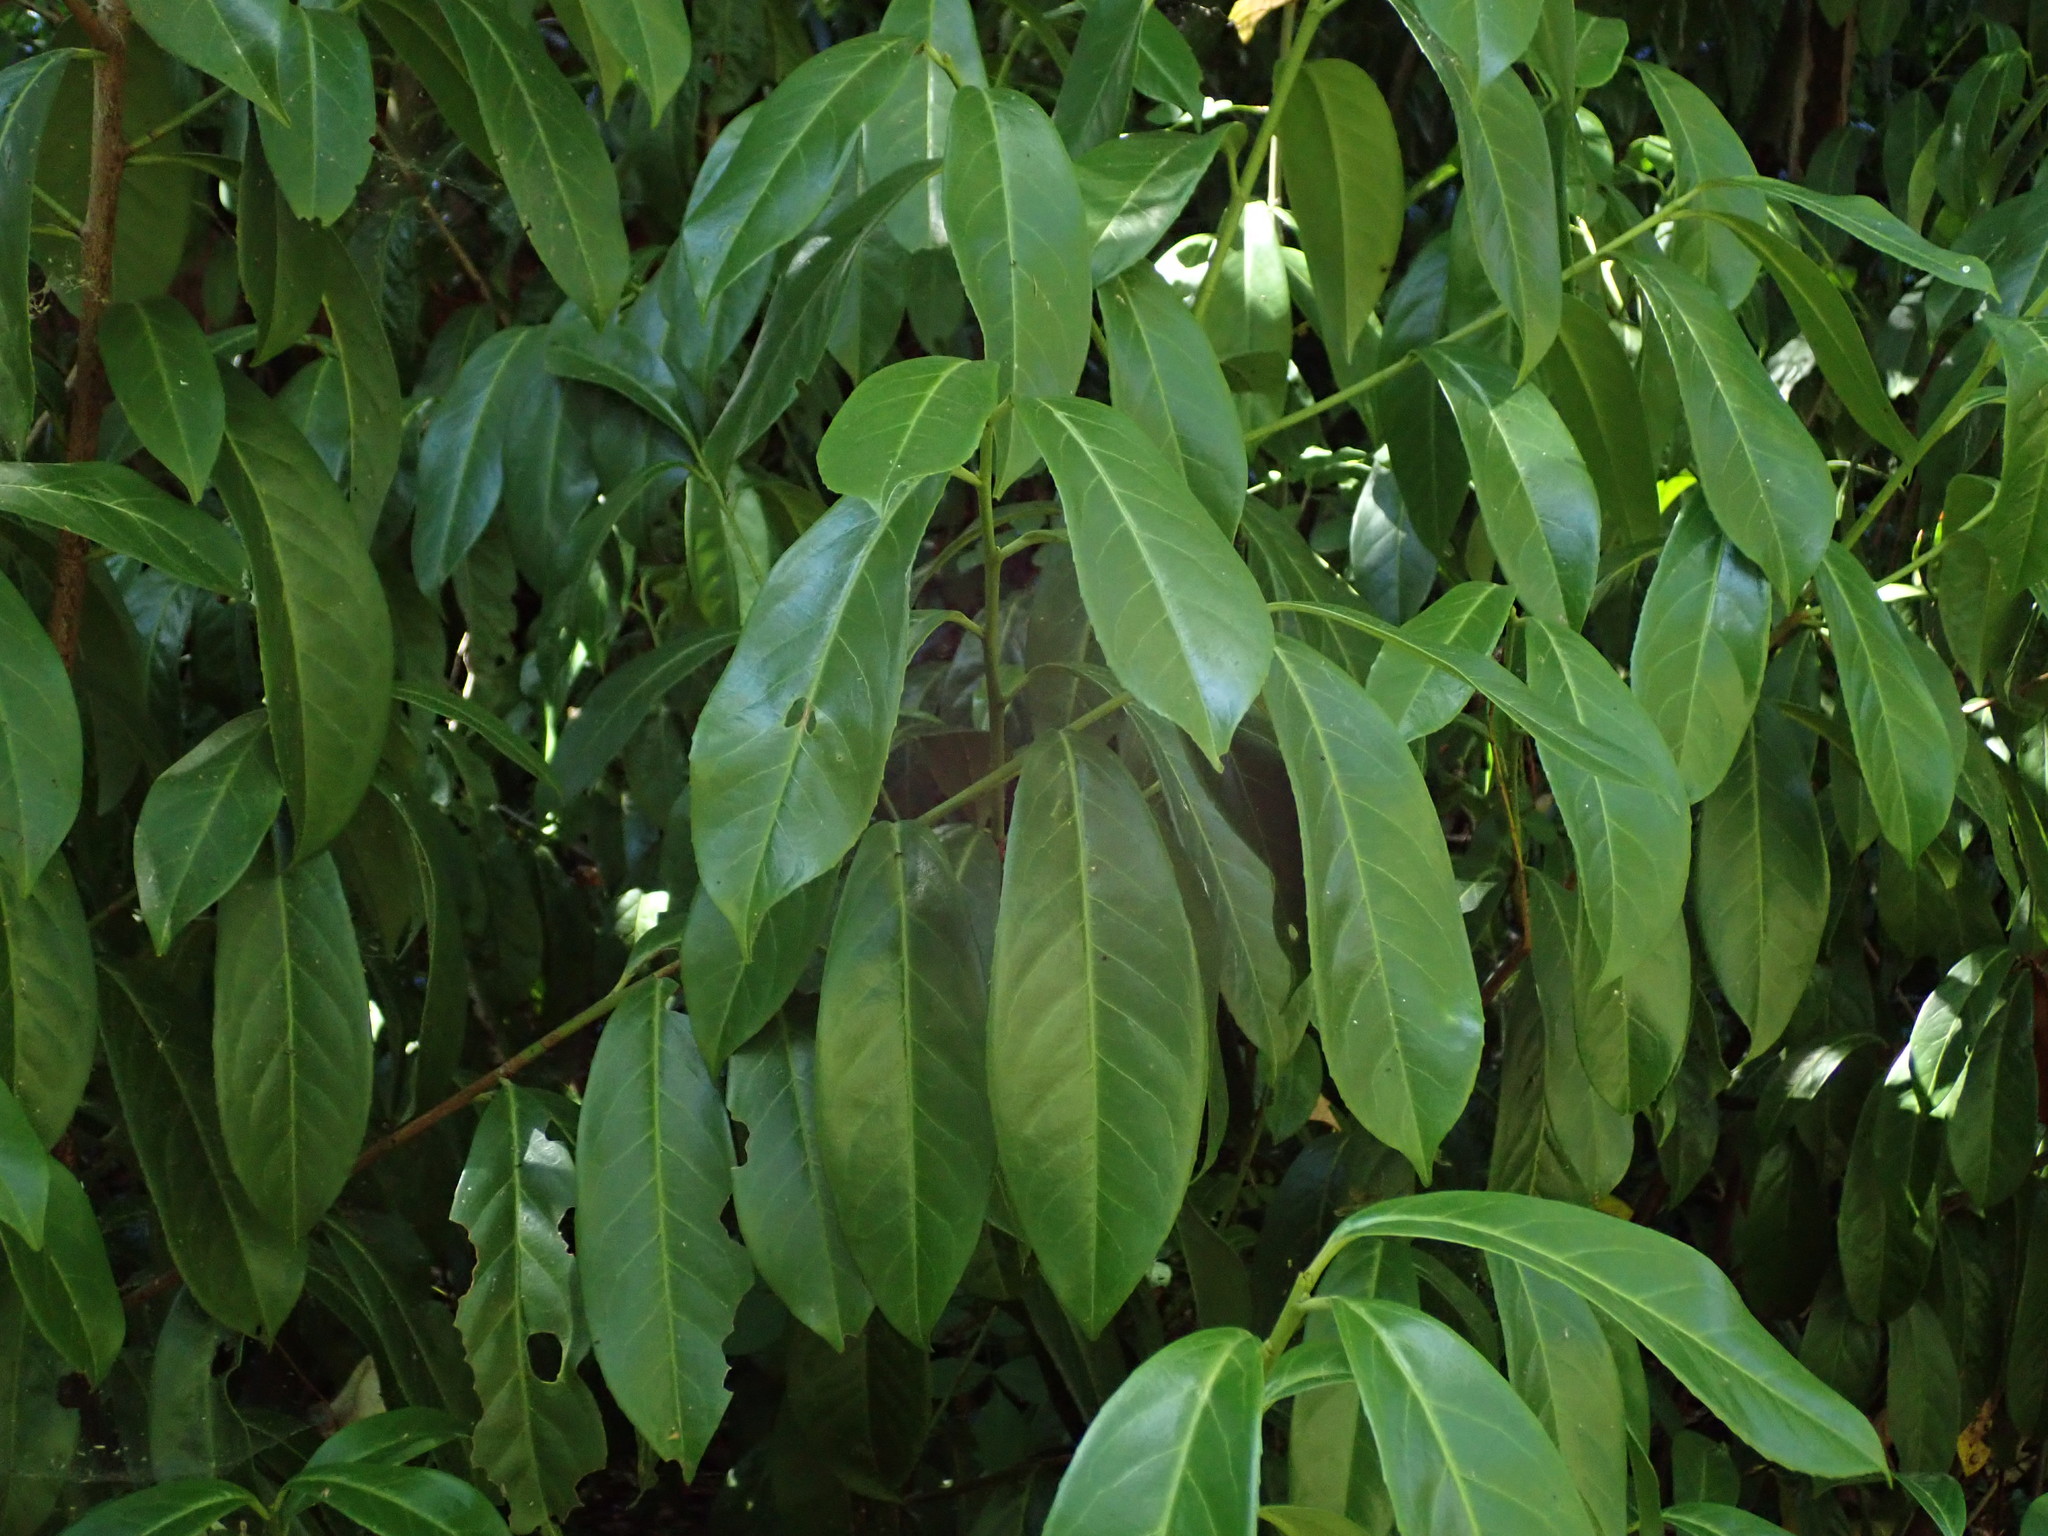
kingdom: Plantae
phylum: Tracheophyta
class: Magnoliopsida
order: Rosales
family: Rosaceae
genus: Prunus
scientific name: Prunus laurocerasus
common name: Cherry laurel
